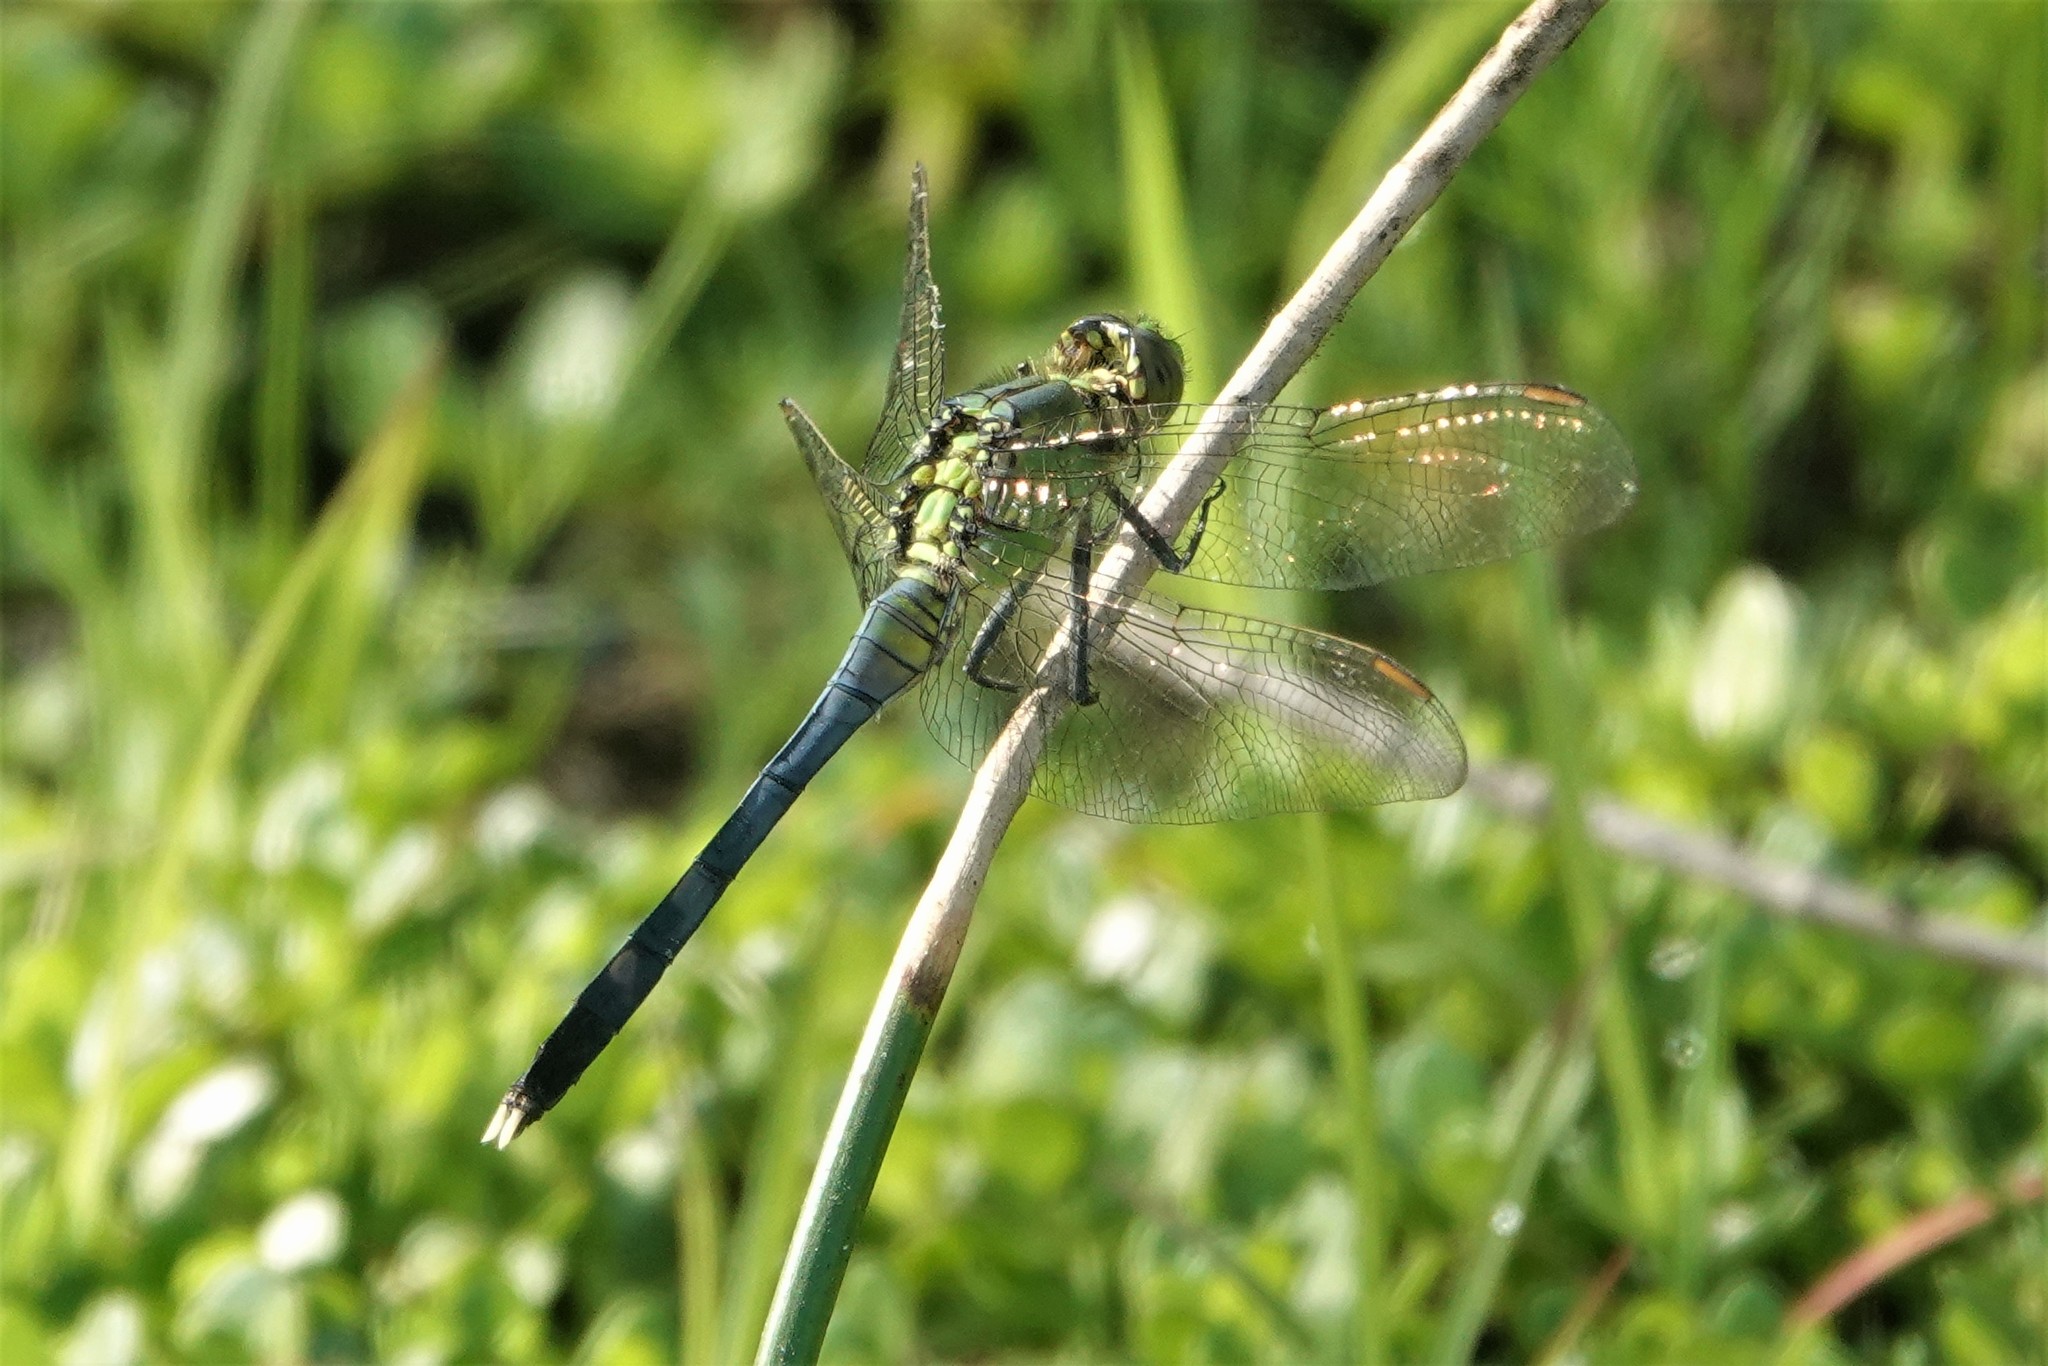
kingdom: Animalia
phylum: Arthropoda
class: Insecta
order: Odonata
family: Libellulidae
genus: Erythemis
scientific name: Erythemis simplicicollis
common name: Eastern pondhawk
